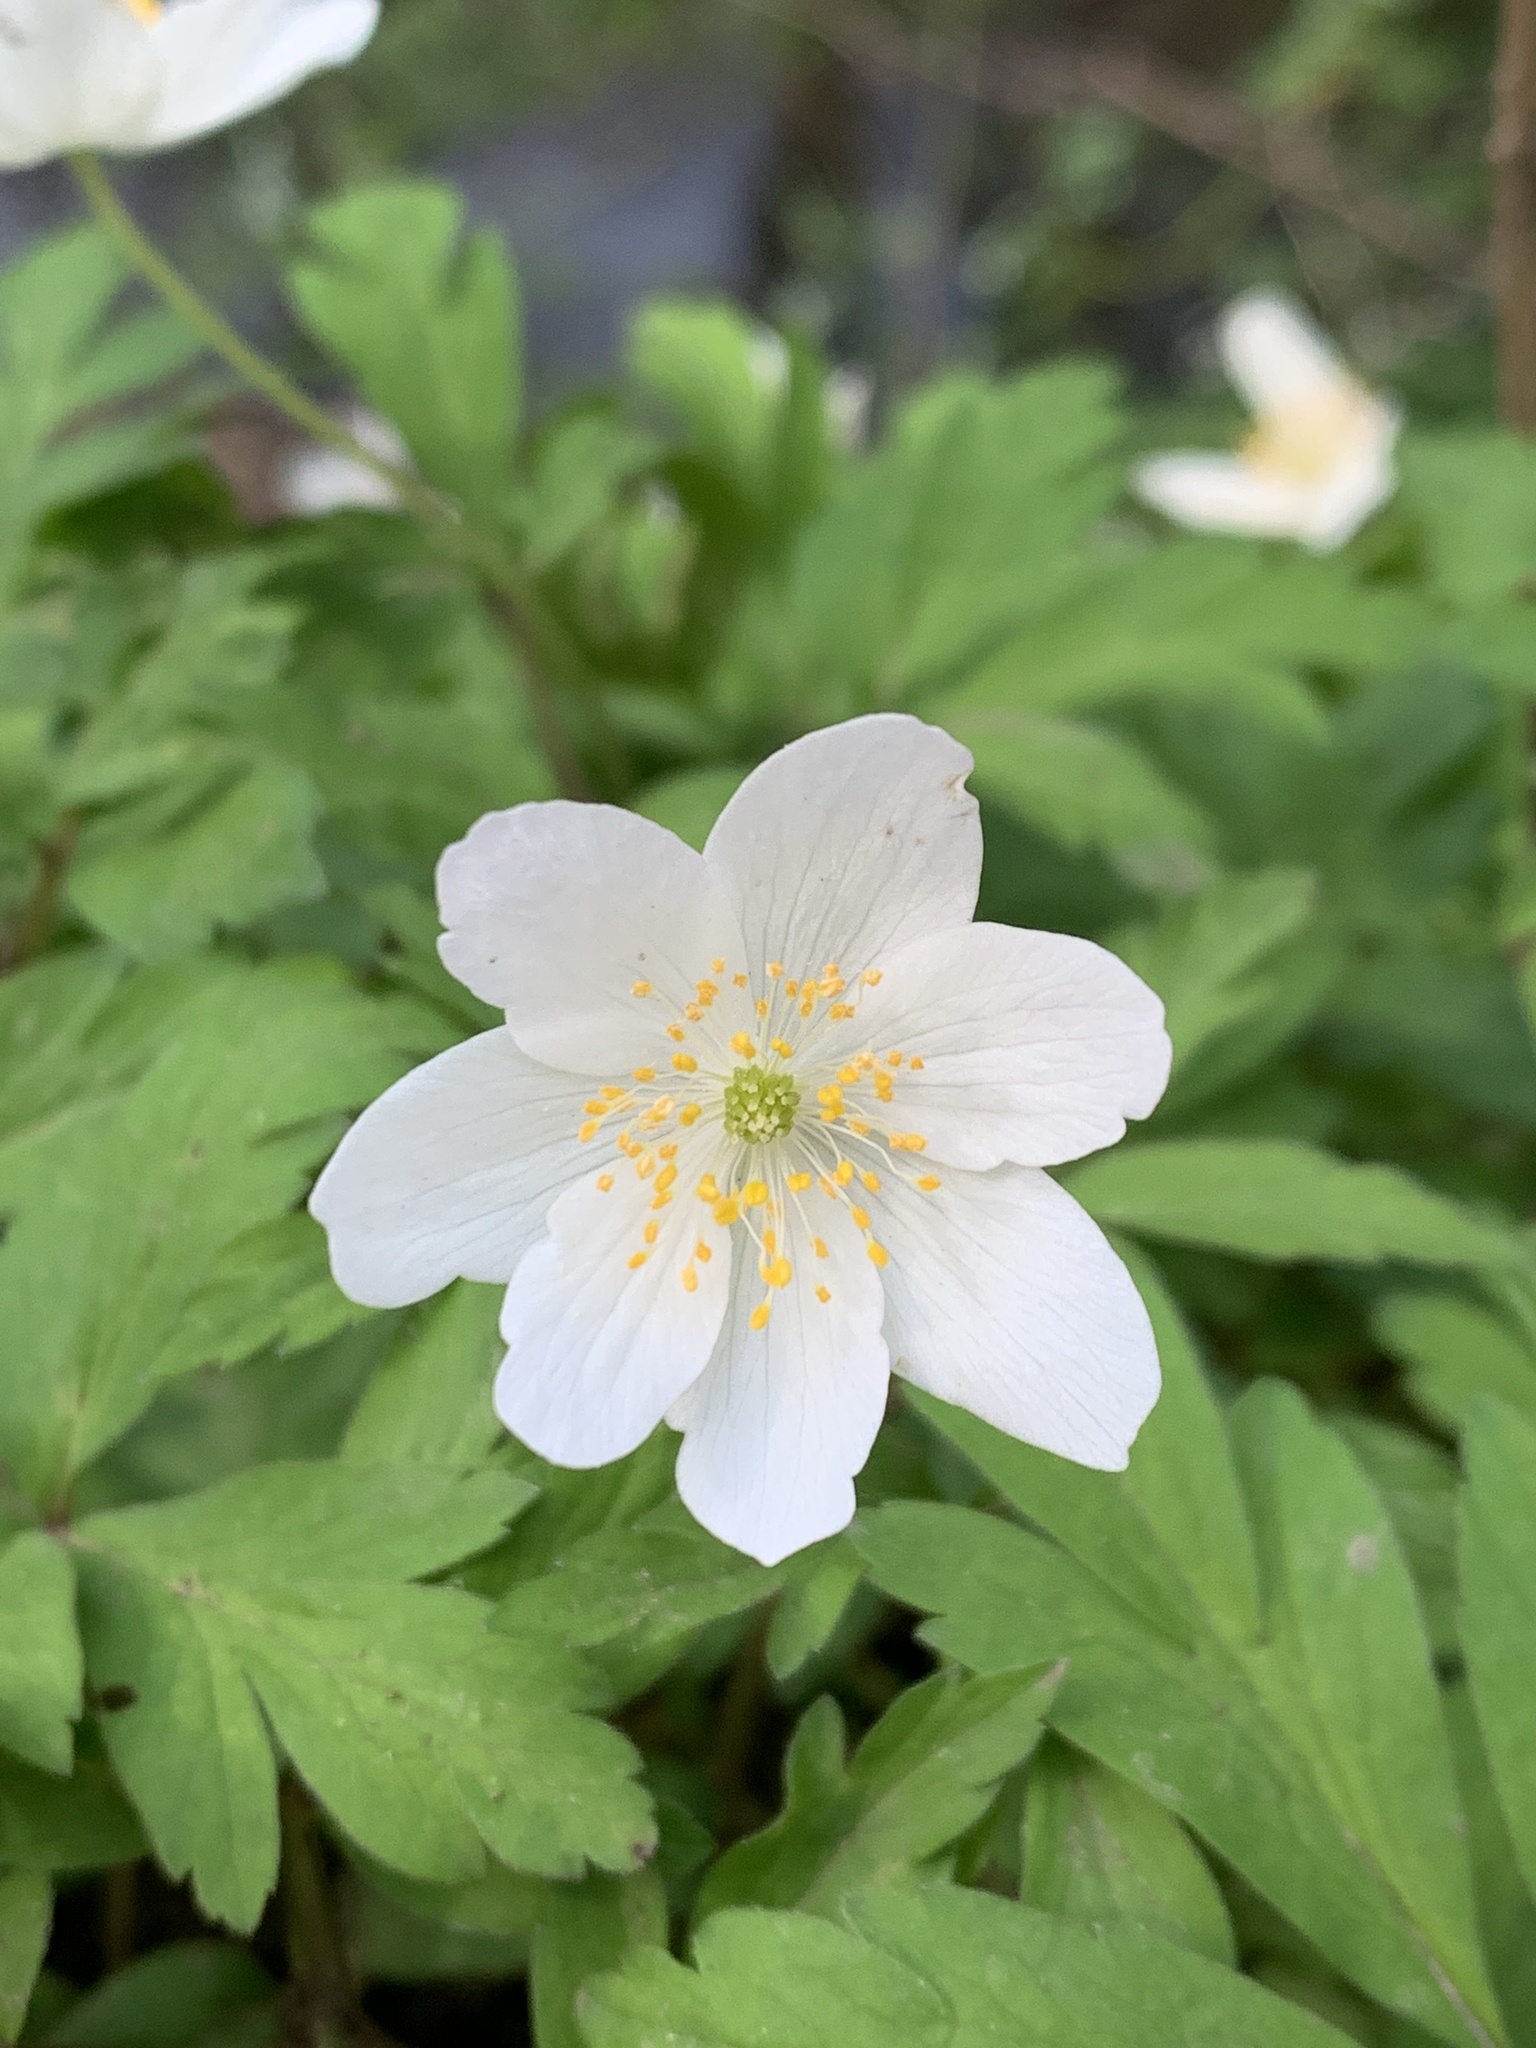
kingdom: Plantae
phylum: Tracheophyta
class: Magnoliopsida
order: Ranunculales
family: Ranunculaceae
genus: Anemone
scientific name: Anemone nemorosa
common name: Wood anemone
